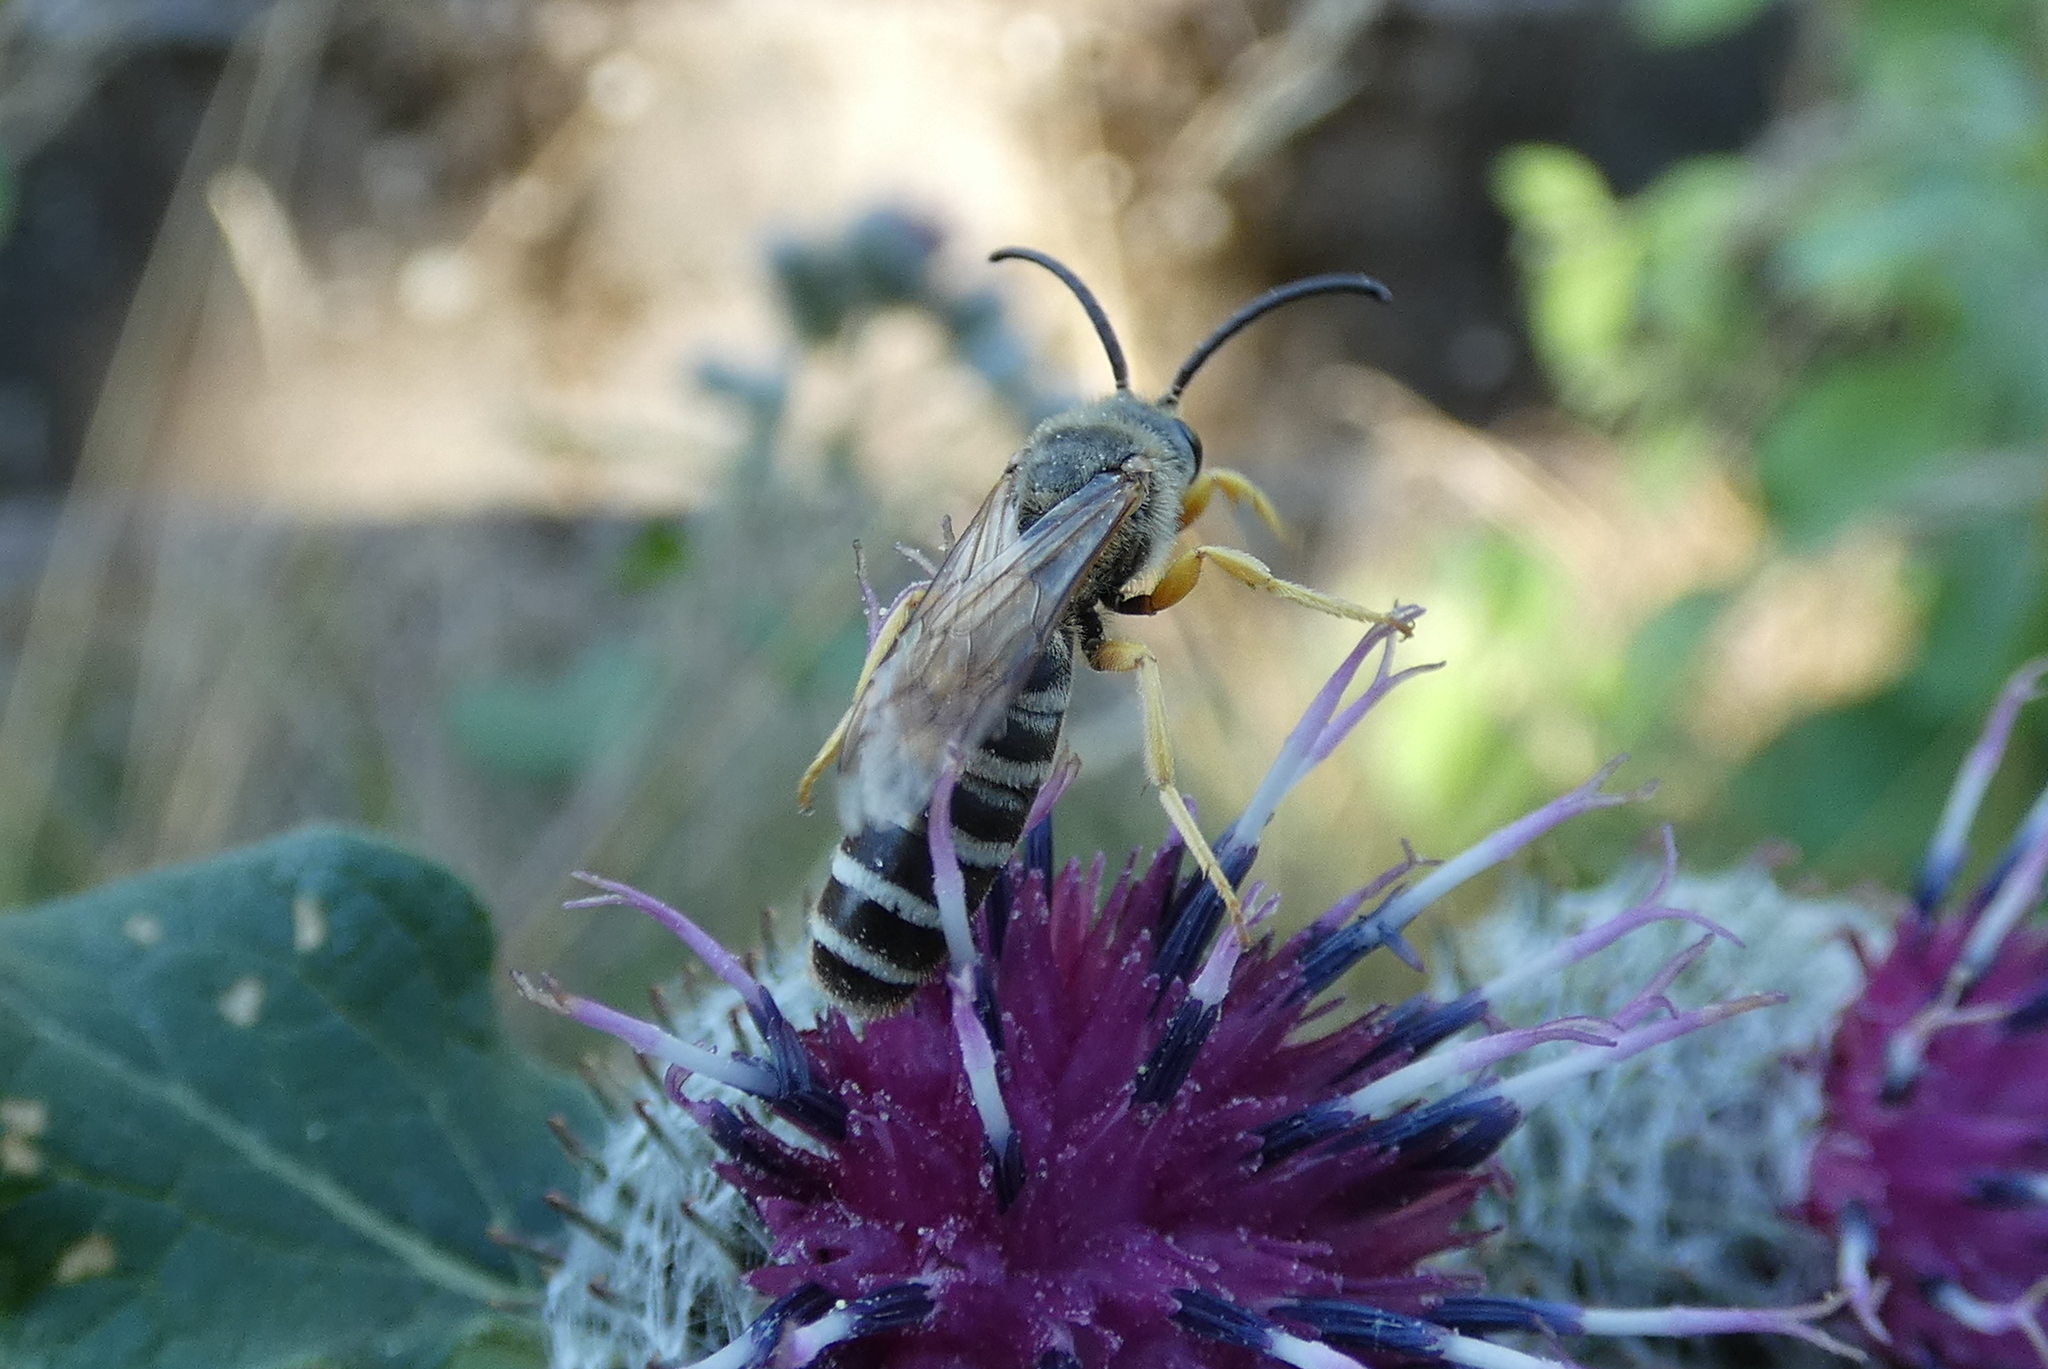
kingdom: Animalia
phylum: Arthropoda
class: Insecta
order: Hymenoptera
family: Halictidae
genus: Halictus
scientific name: Halictus scabiosae
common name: Great banded furrow bee
